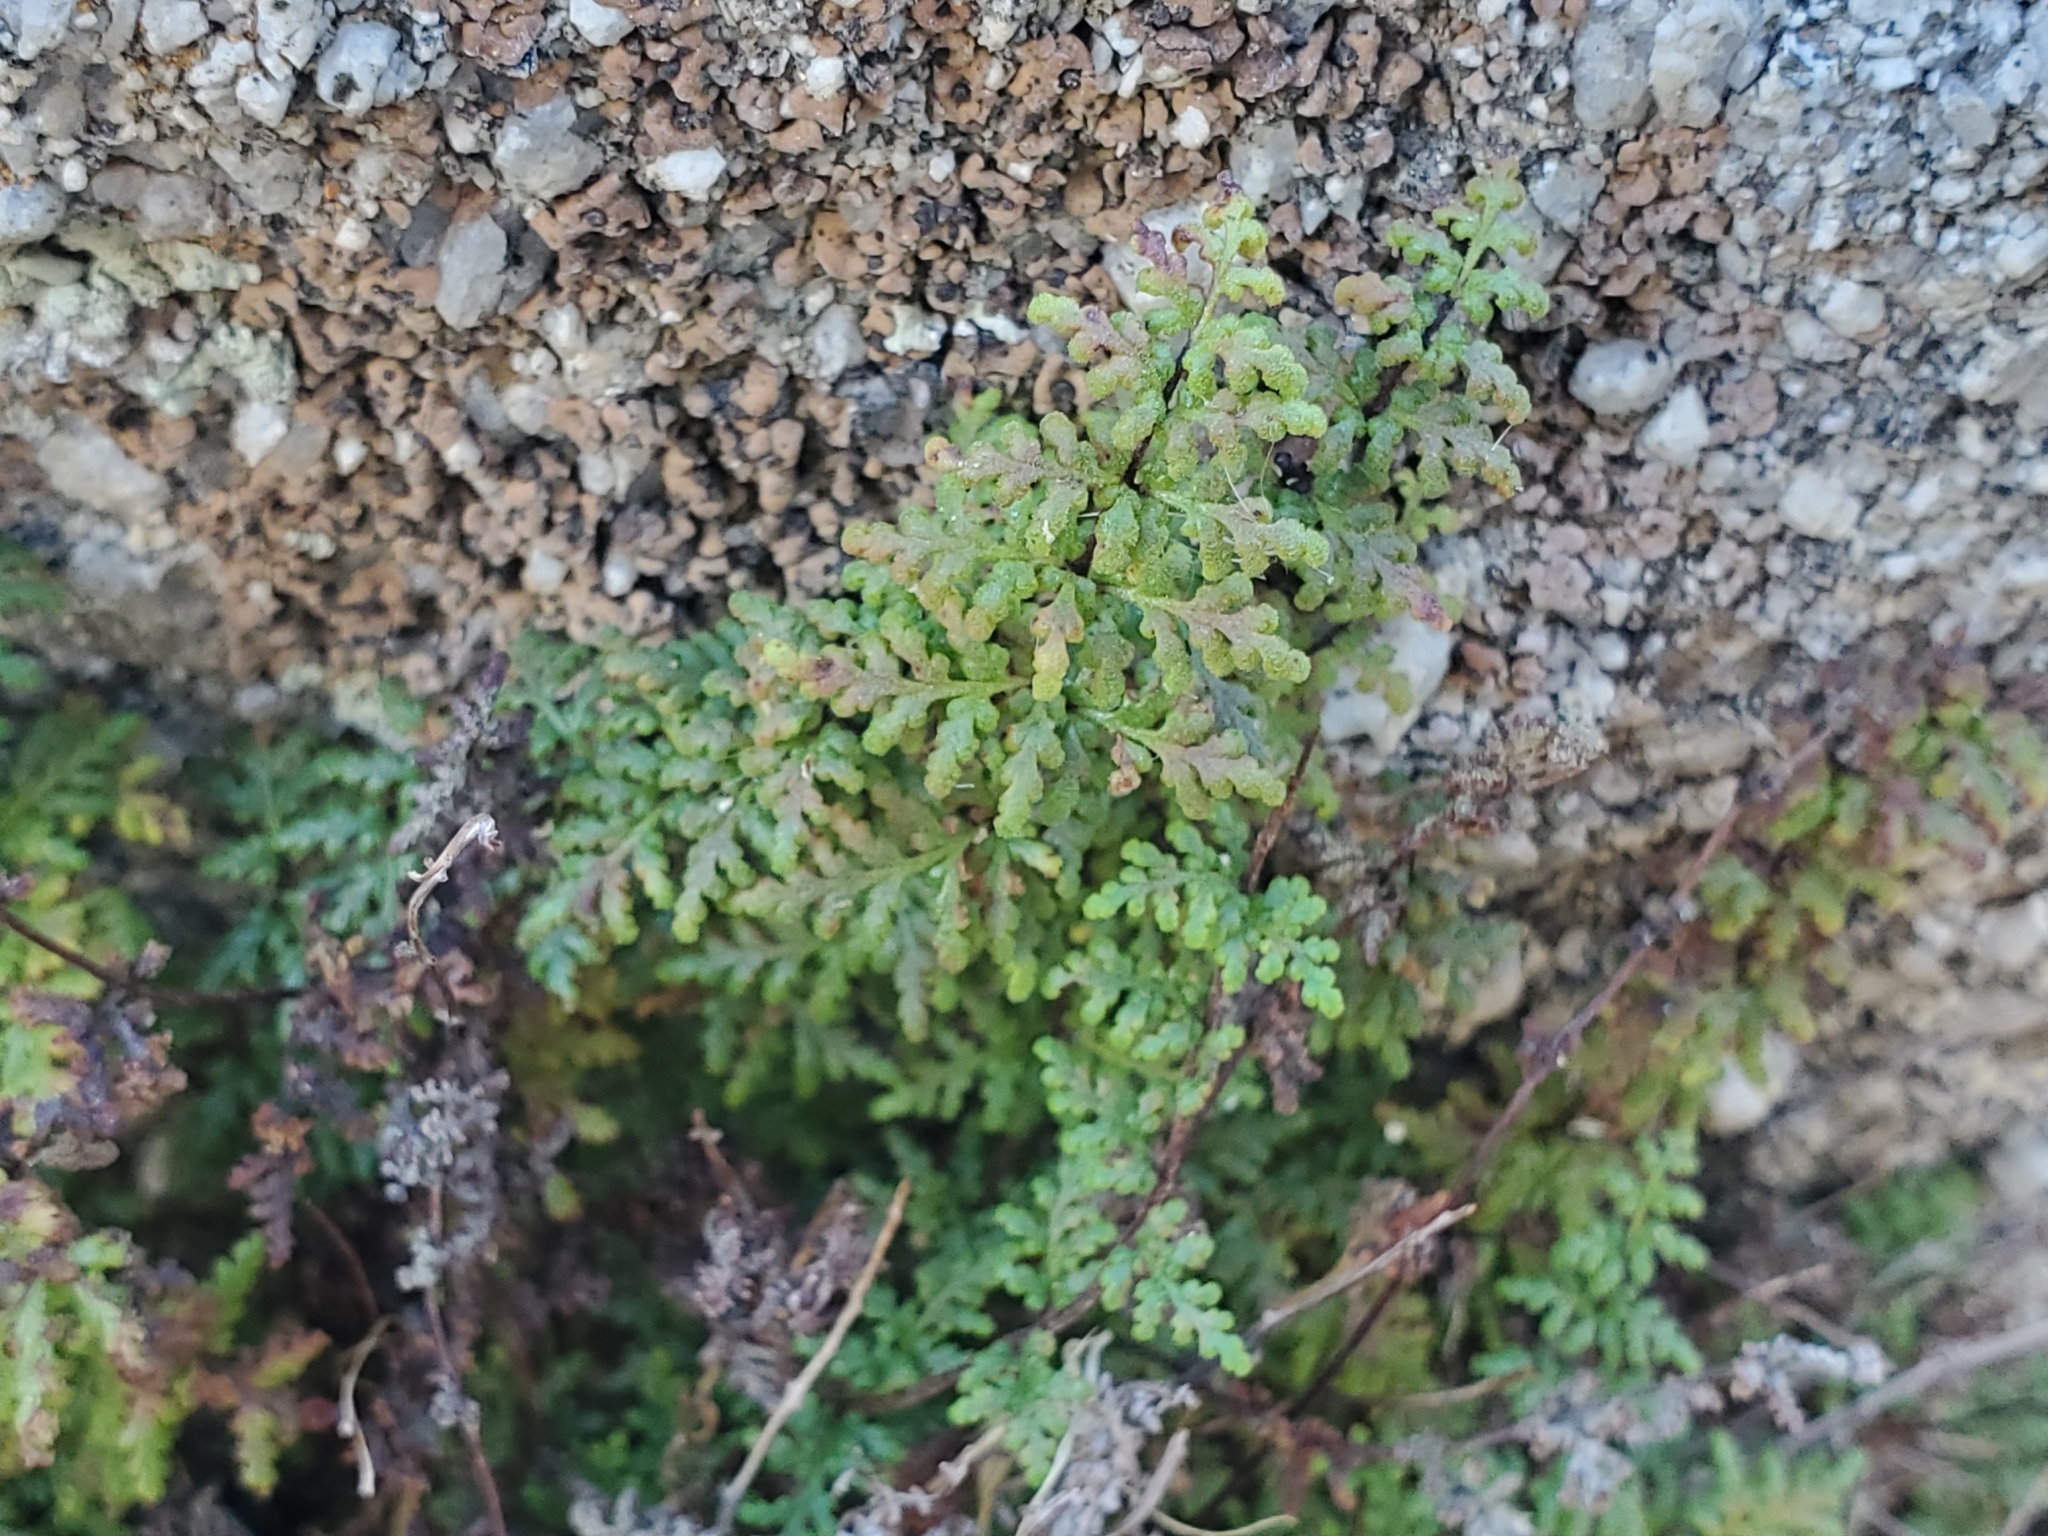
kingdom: Plantae
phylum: Tracheophyta
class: Polypodiopsida
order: Polypodiales
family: Pteridaceae
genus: Myriopteris
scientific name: Myriopteris viscida
